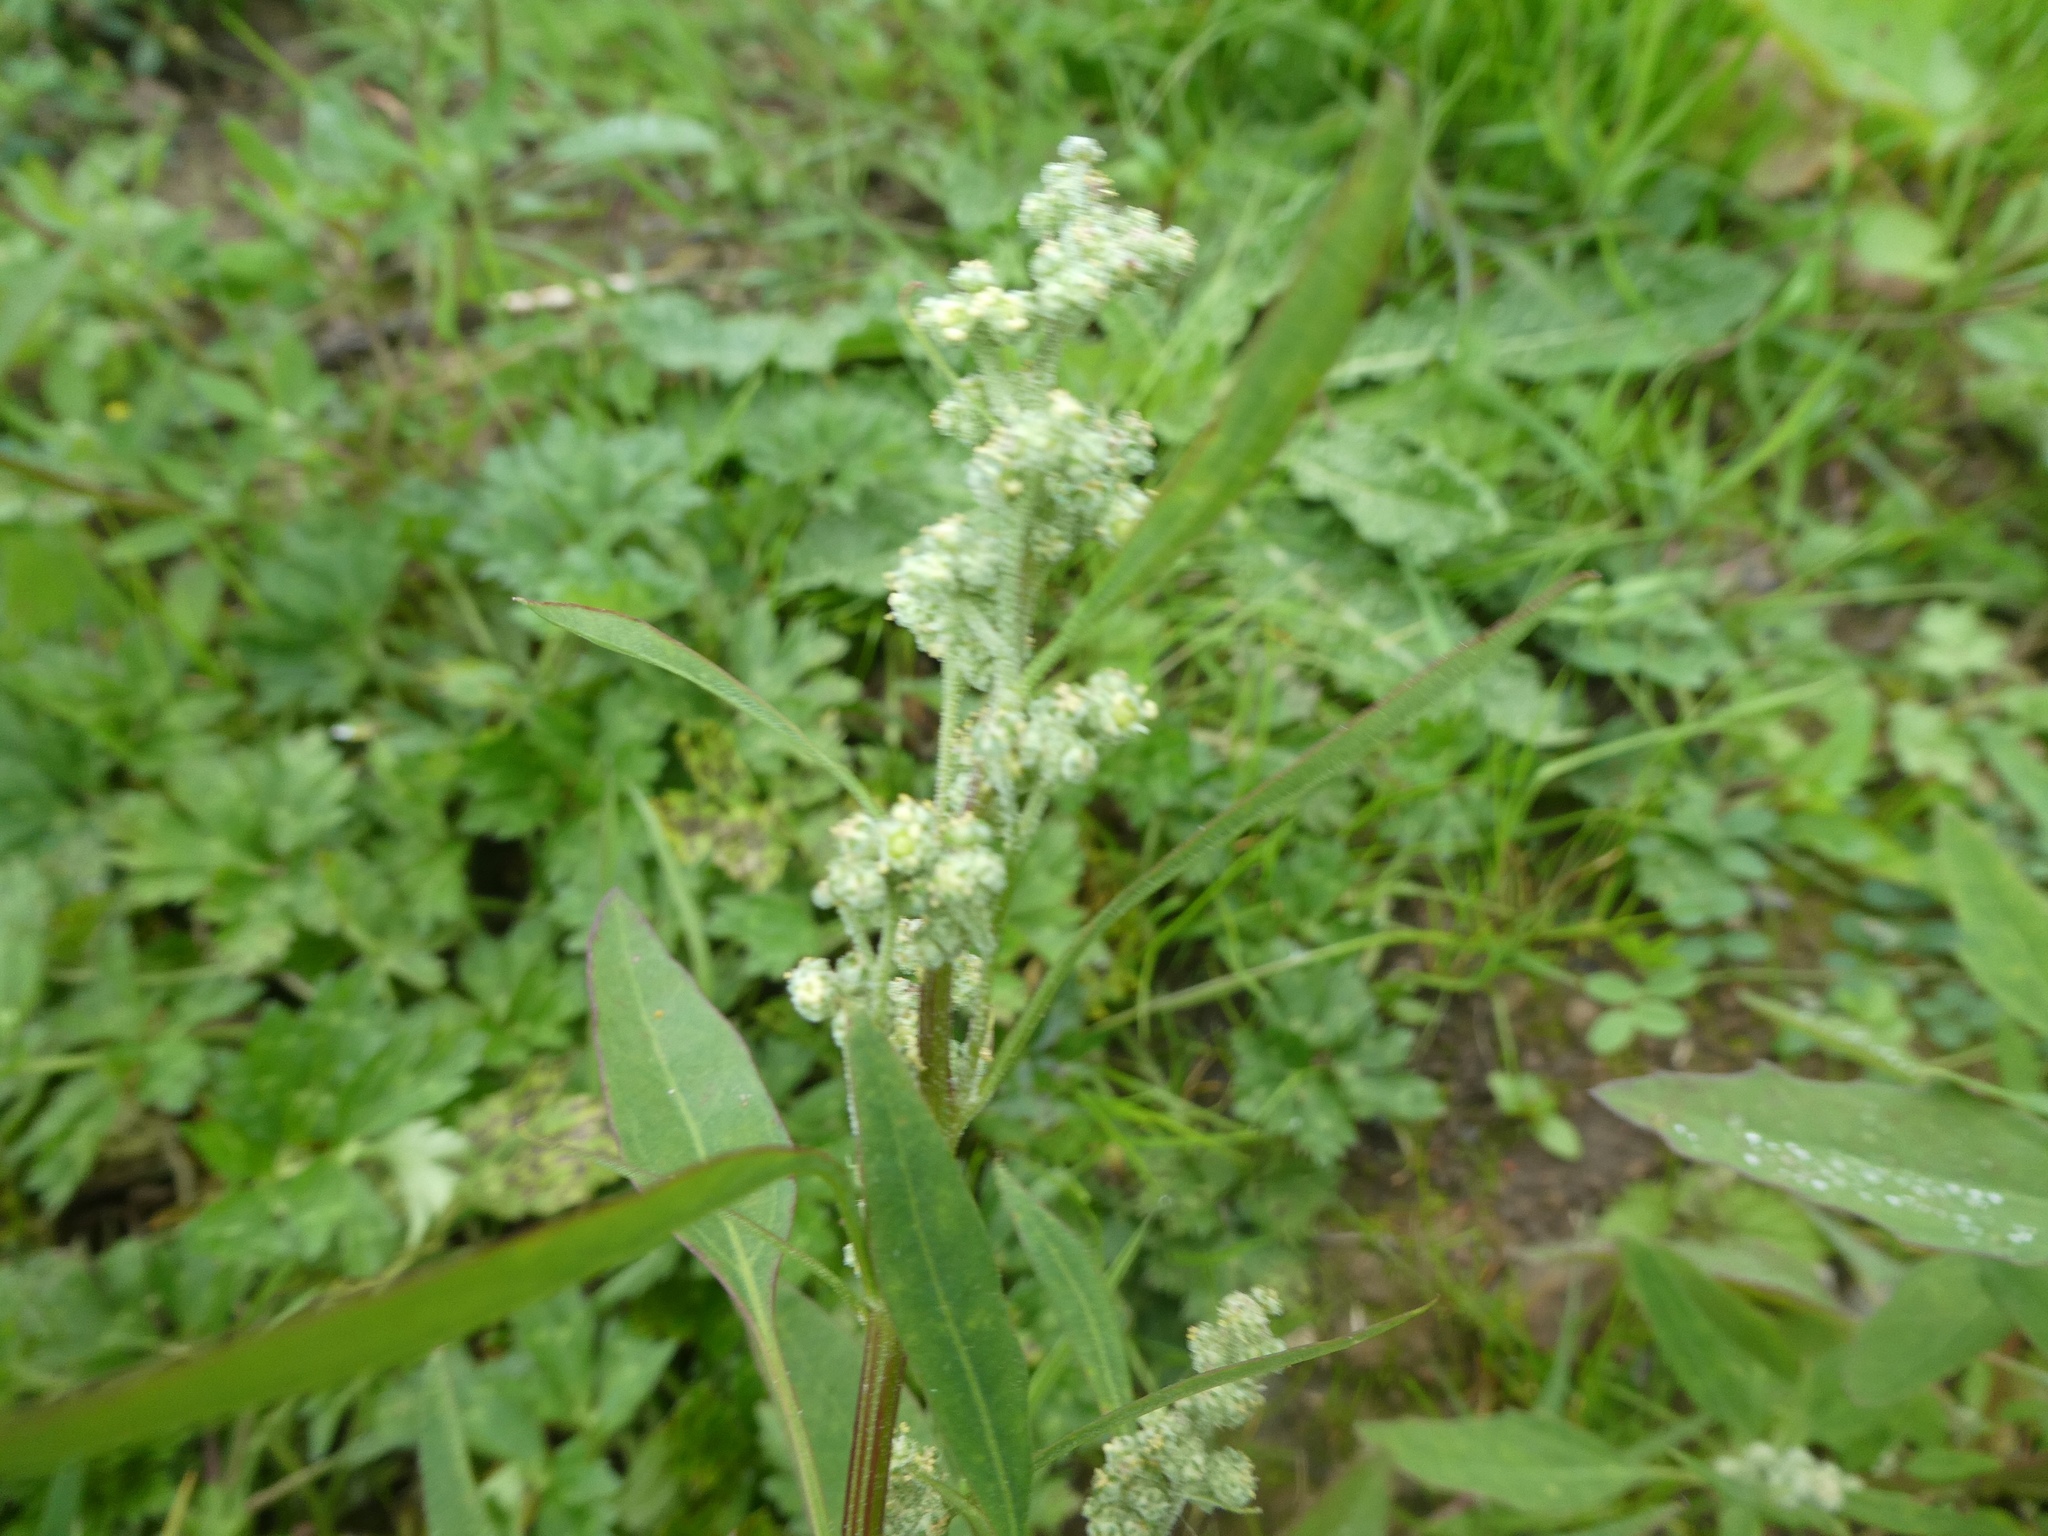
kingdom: Plantae
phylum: Tracheophyta
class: Magnoliopsida
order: Caryophyllales
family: Amaranthaceae
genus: Chenopodium
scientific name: Chenopodium album
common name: Fat-hen
